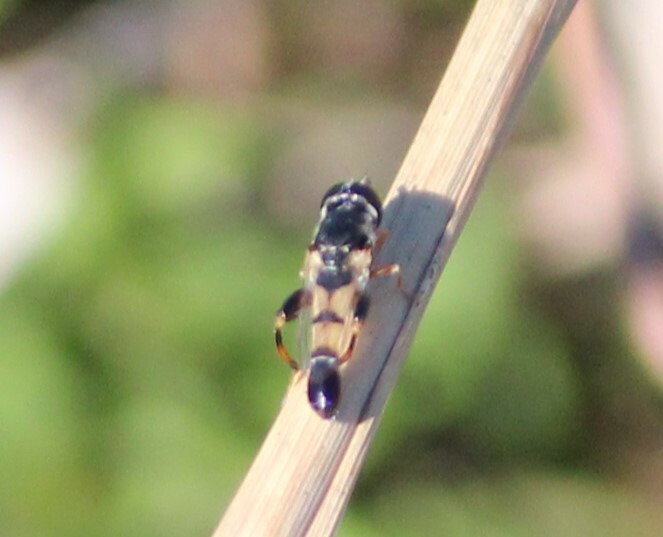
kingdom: Animalia
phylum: Arthropoda
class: Insecta
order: Diptera
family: Syrphidae
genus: Syritta
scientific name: Syritta flaviventris
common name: Syrphid fly
